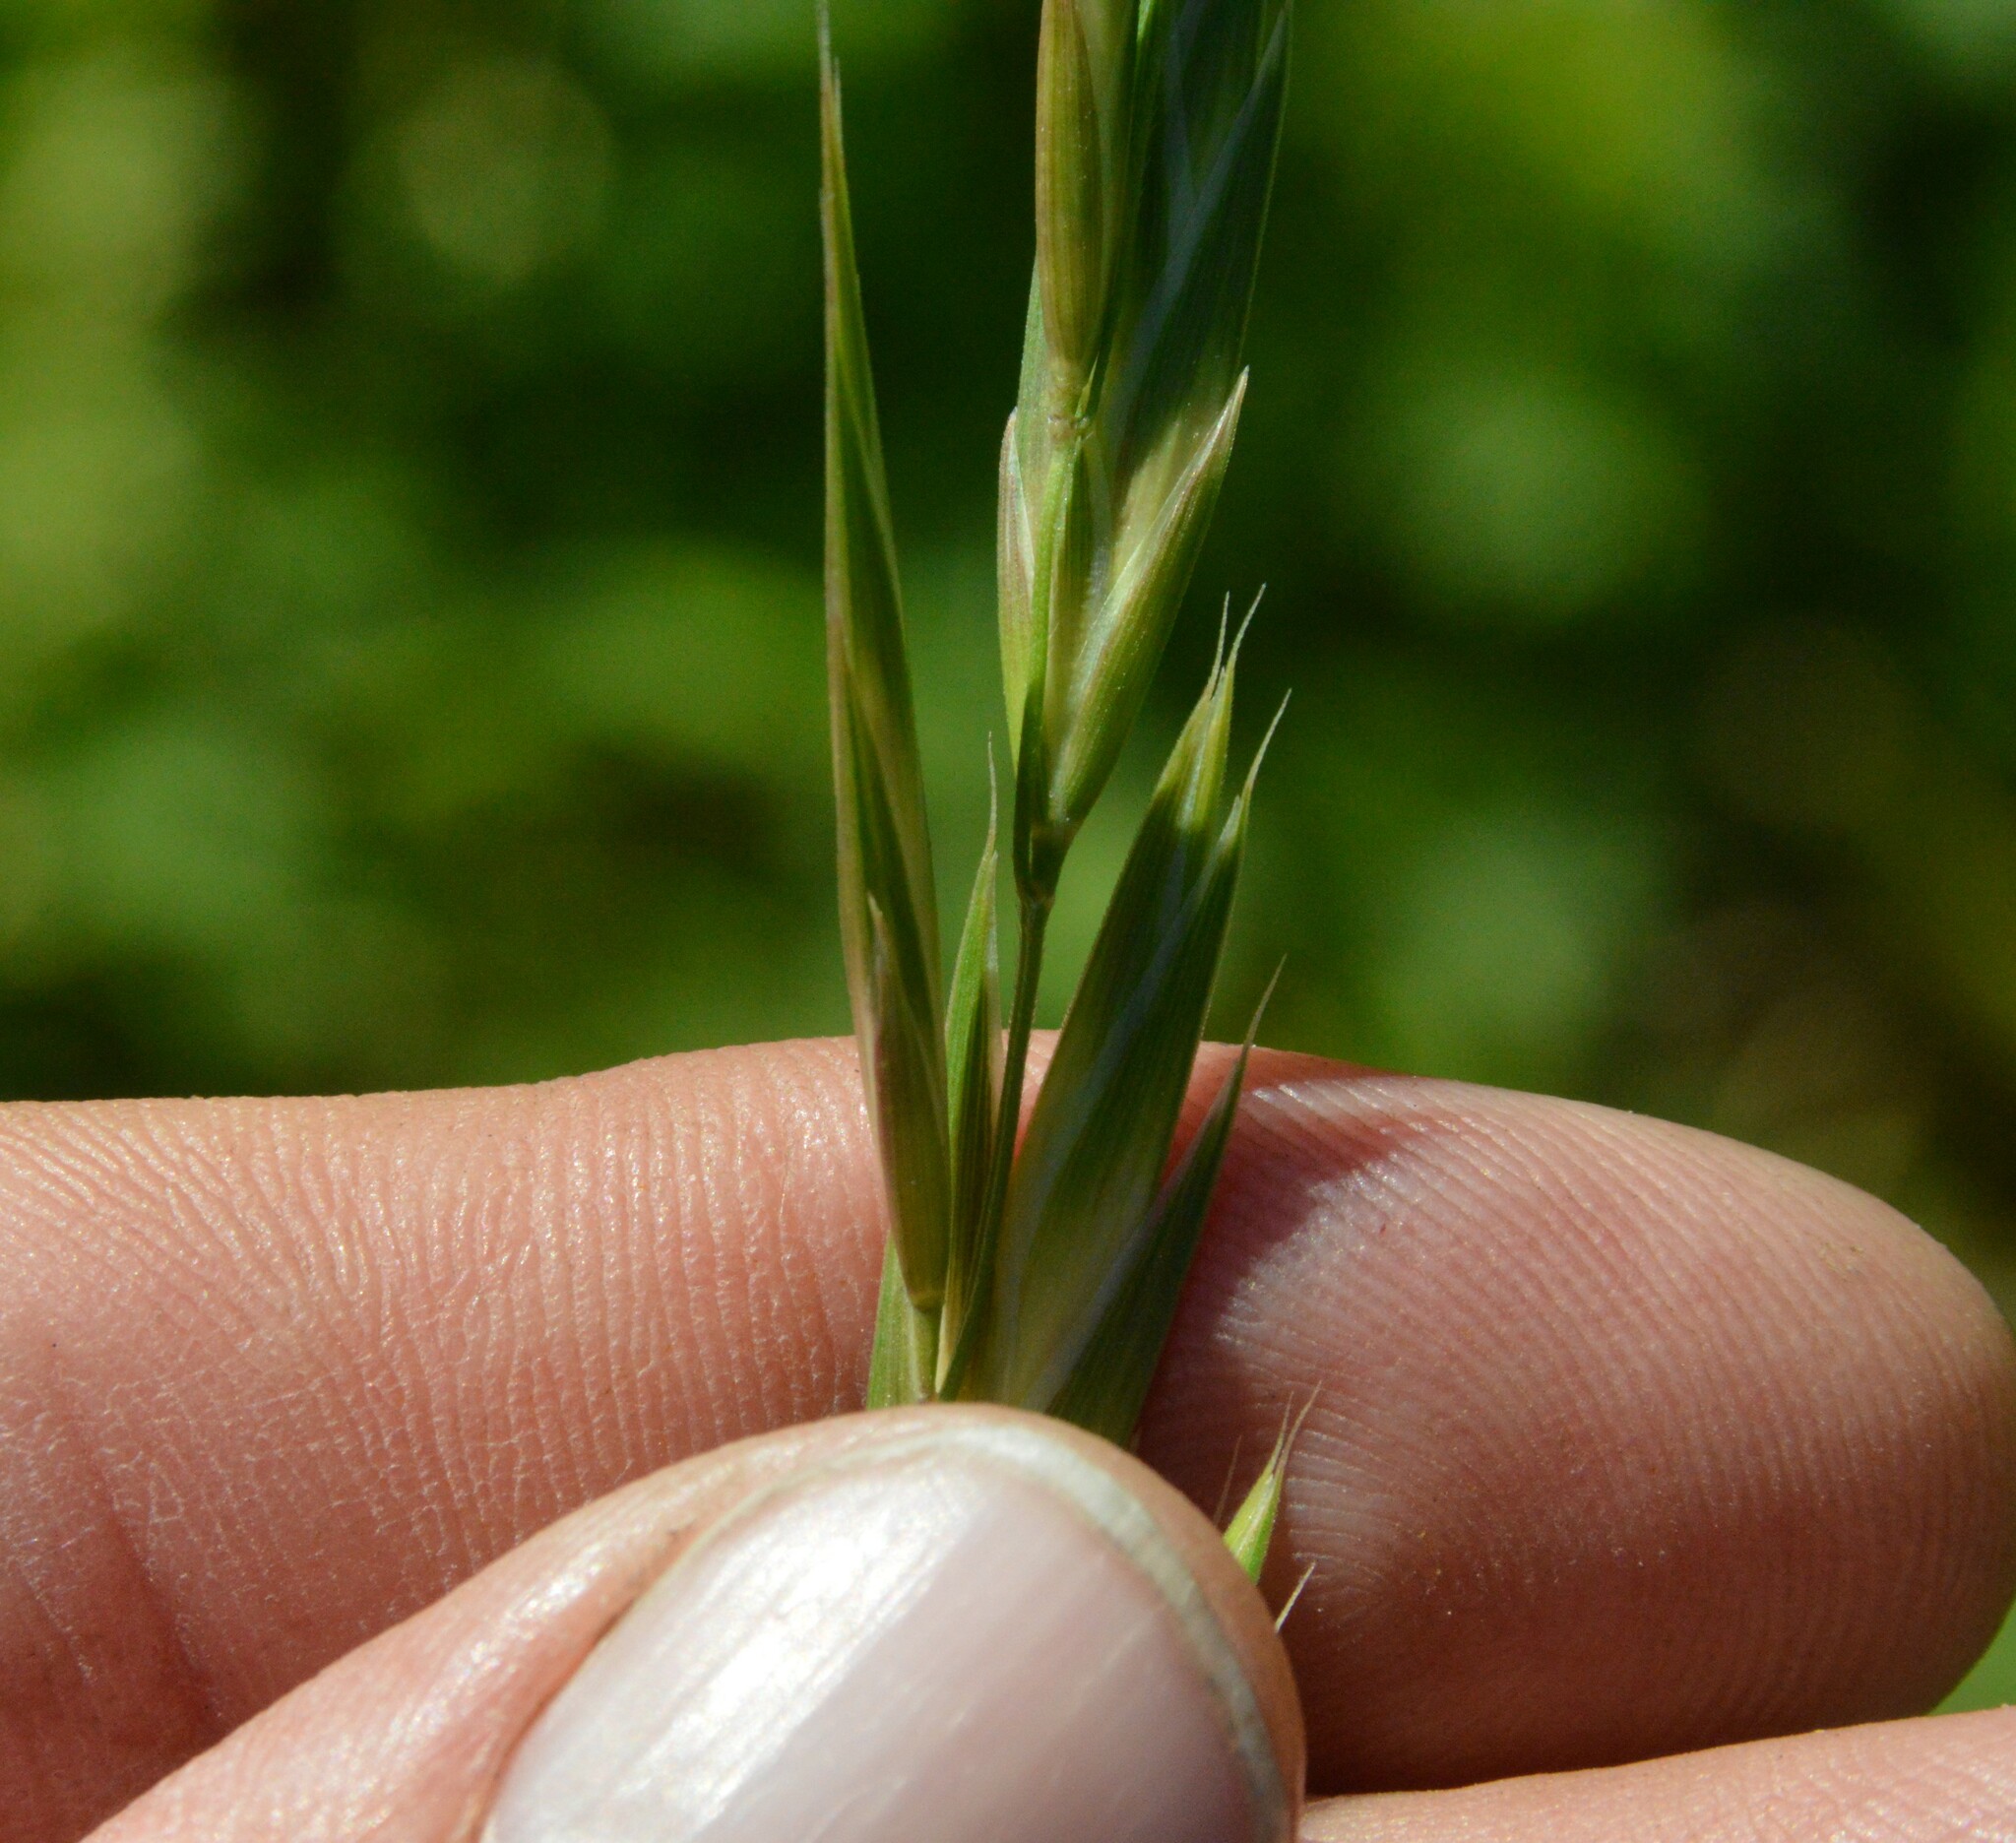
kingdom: Plantae
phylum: Tracheophyta
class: Liliopsida
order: Poales
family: Poaceae
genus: Bromus
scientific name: Bromus catharticus
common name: Rescuegrass
